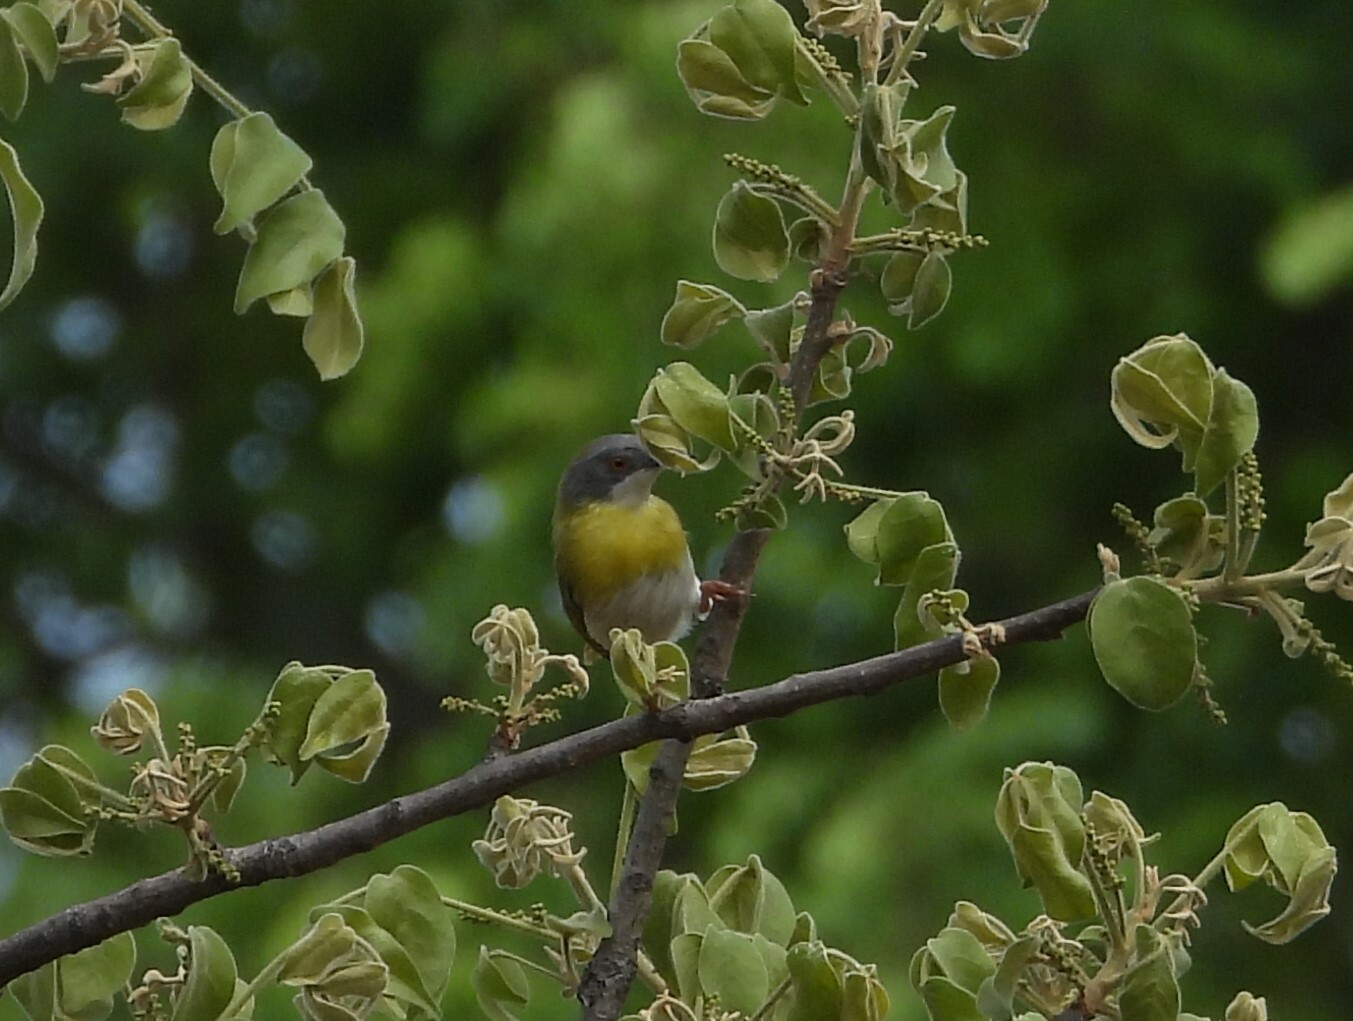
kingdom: Animalia
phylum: Chordata
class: Aves
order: Passeriformes
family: Cisticolidae
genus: Apalis
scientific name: Apalis flavida
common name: Yellow-breasted apalis
